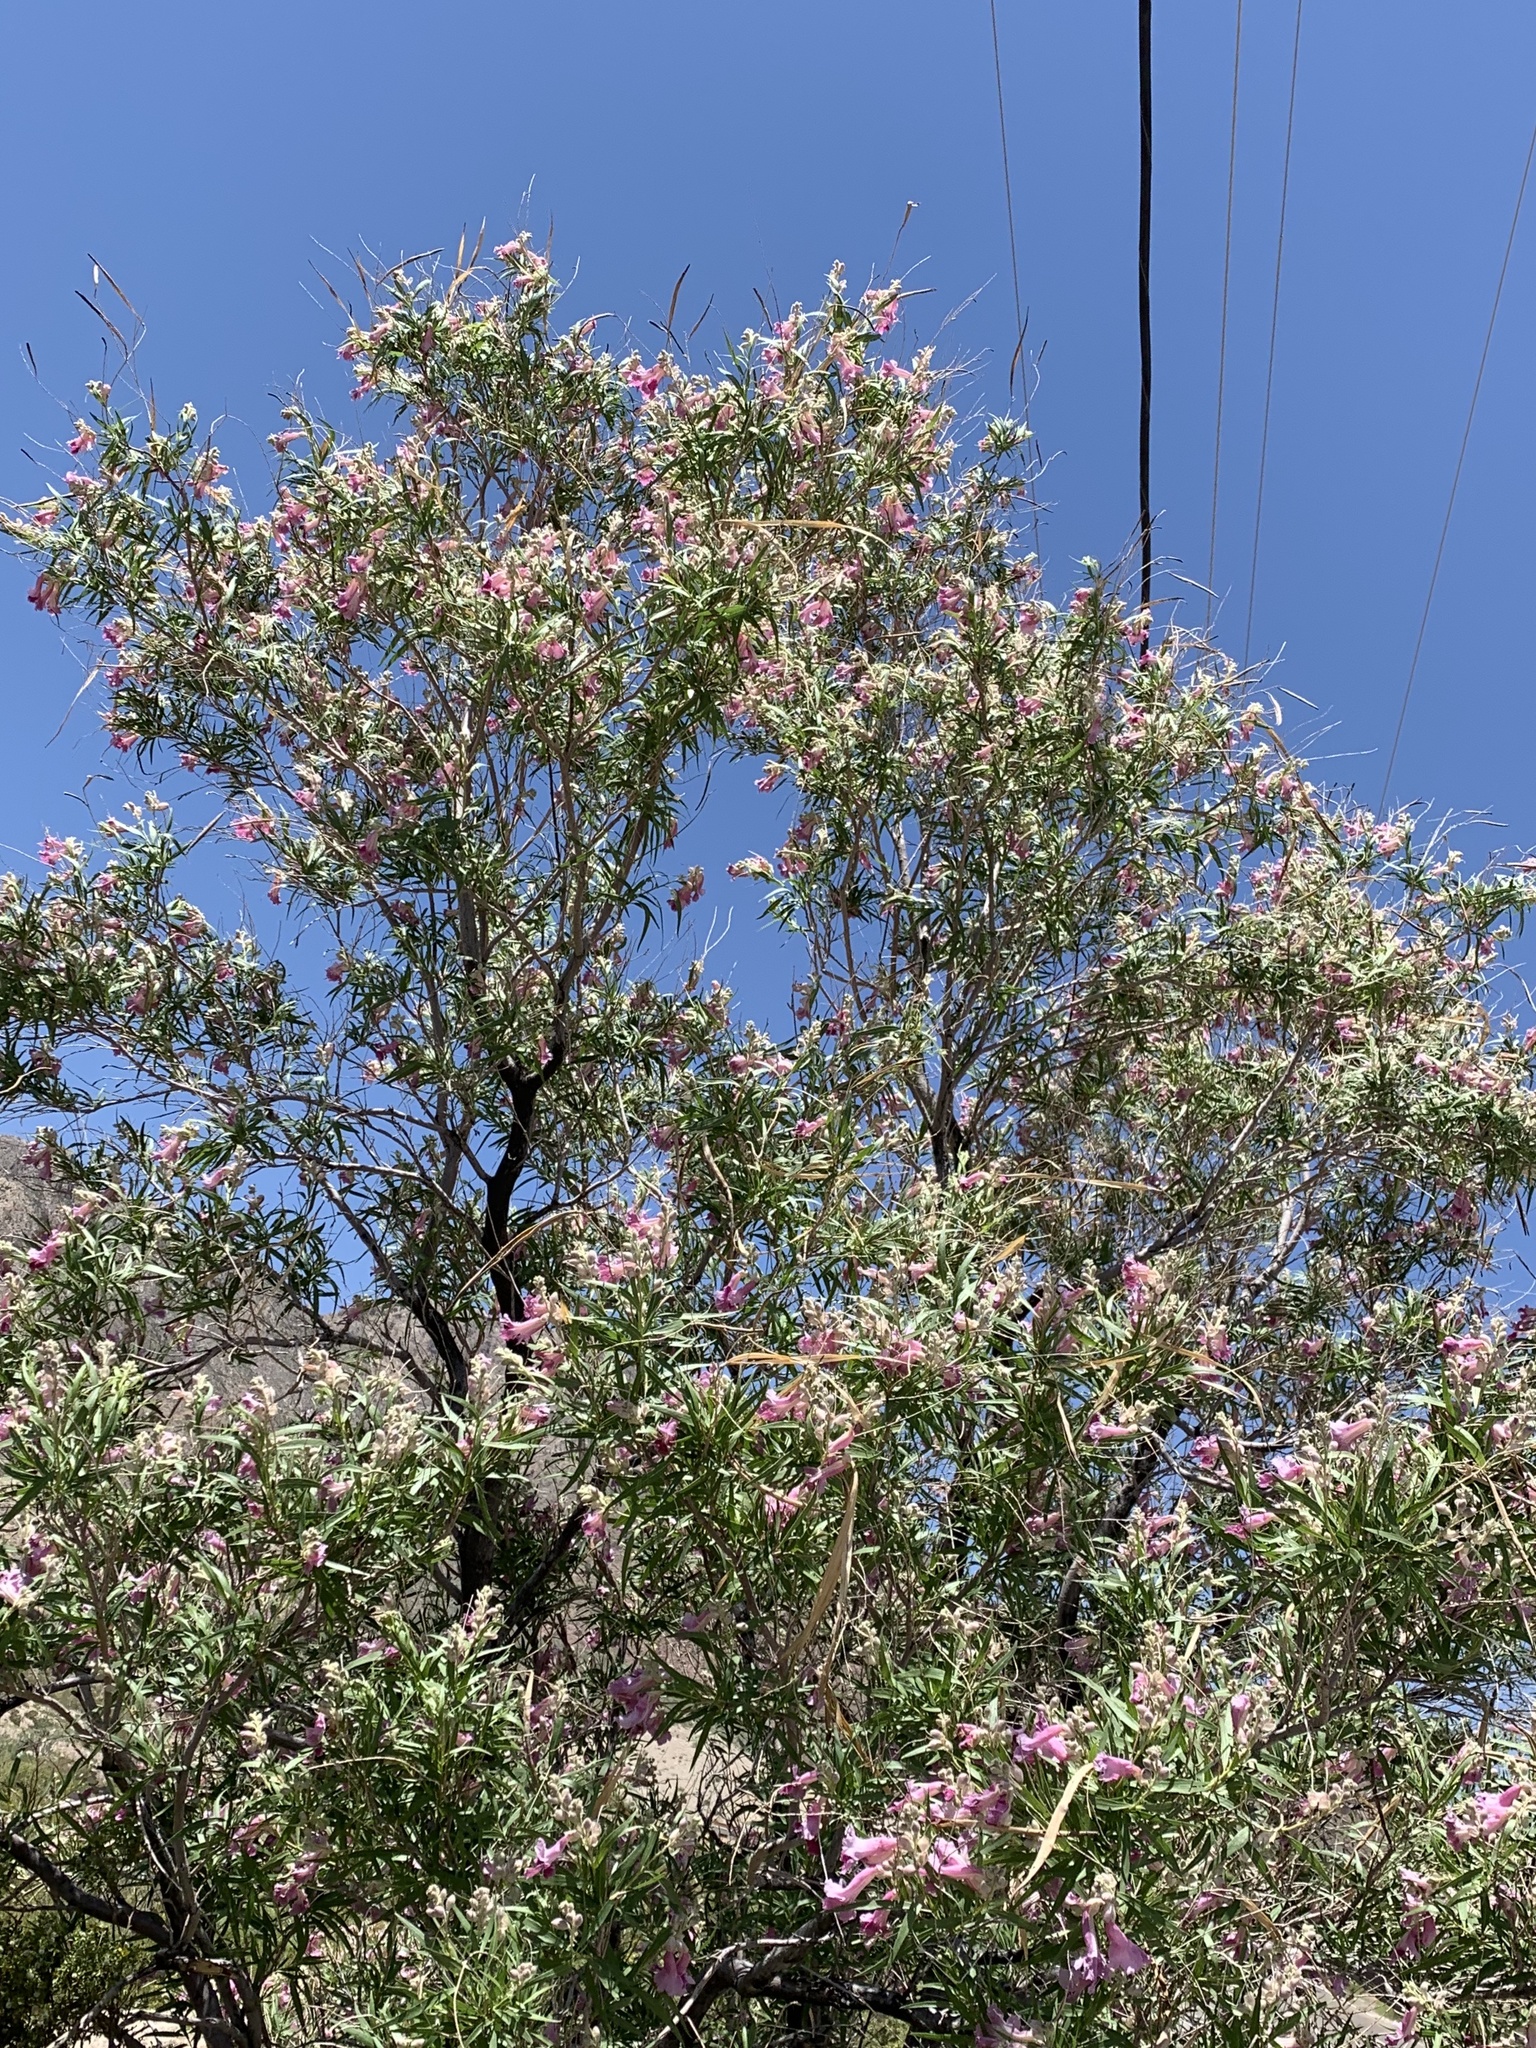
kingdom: Plantae
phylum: Tracheophyta
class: Magnoliopsida
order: Lamiales
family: Bignoniaceae
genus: Chilopsis
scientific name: Chilopsis linearis
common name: Desert-willow
